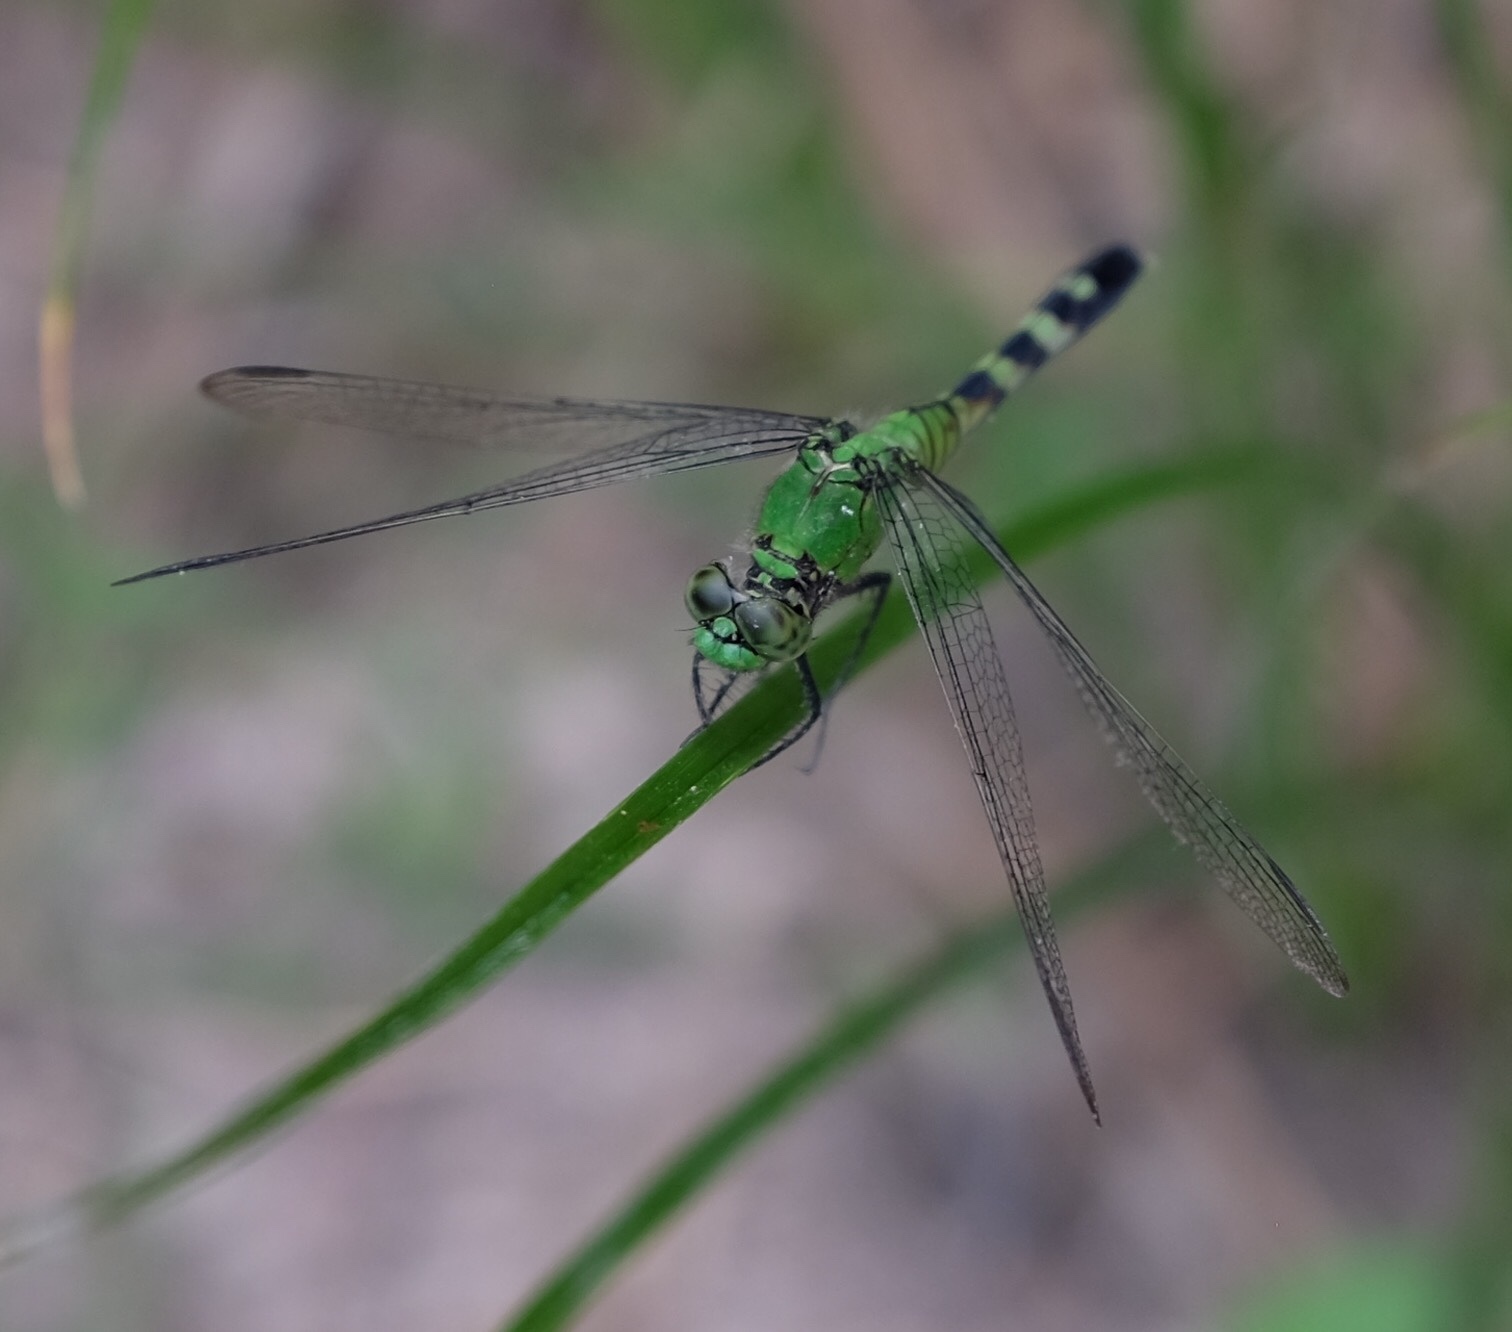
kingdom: Animalia
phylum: Arthropoda
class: Insecta
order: Odonata
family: Libellulidae
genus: Erythemis
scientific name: Erythemis simplicicollis
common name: Eastern pondhawk
